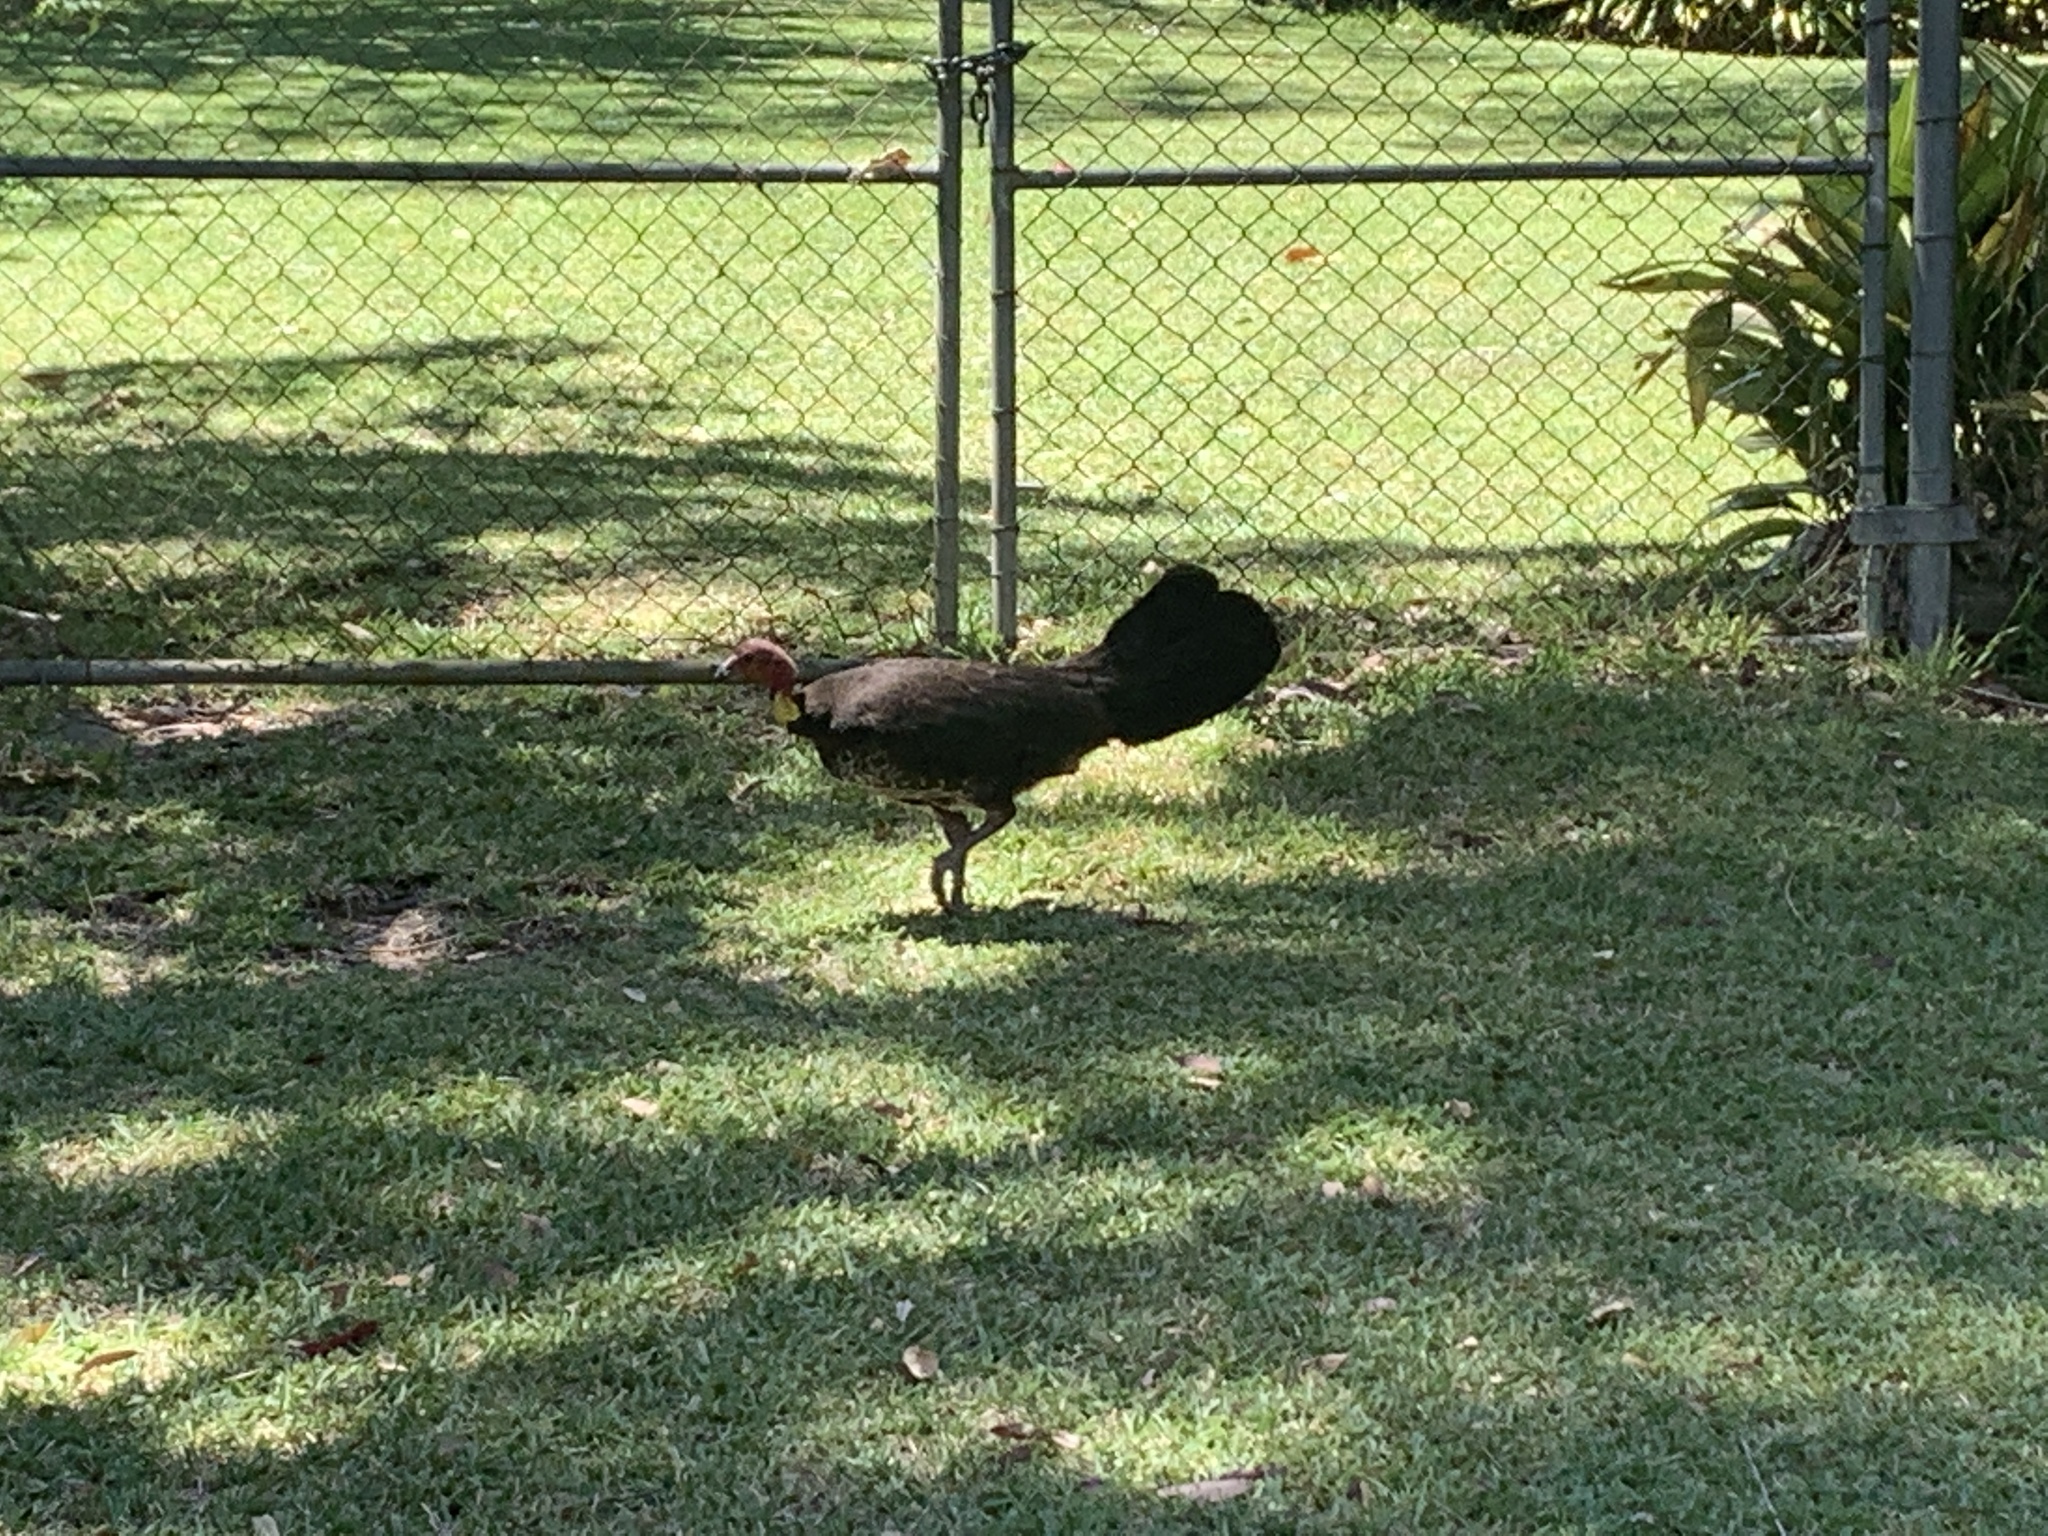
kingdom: Animalia
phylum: Chordata
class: Aves
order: Galliformes
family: Megapodiidae
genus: Alectura
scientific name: Alectura lathami
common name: Australian brushturkey
